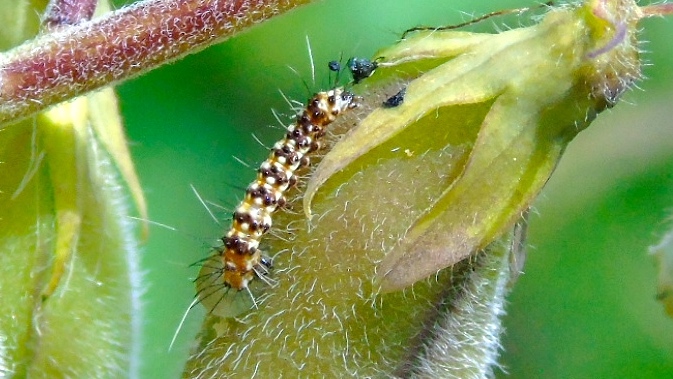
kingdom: Animalia
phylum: Arthropoda
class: Insecta
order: Lepidoptera
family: Erebidae
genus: Utetheisa
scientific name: Utetheisa ornatrix
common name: Beautiful utetheisa
